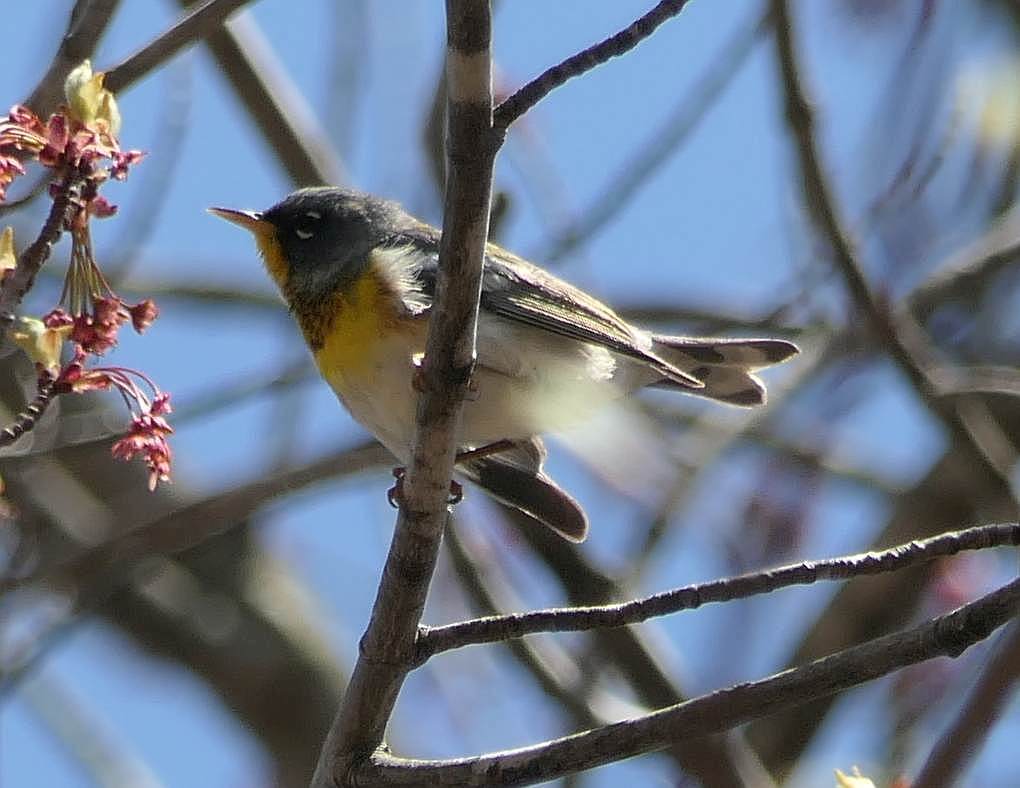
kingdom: Animalia
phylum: Chordata
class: Aves
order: Passeriformes
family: Parulidae
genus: Setophaga
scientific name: Setophaga americana
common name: Northern parula
